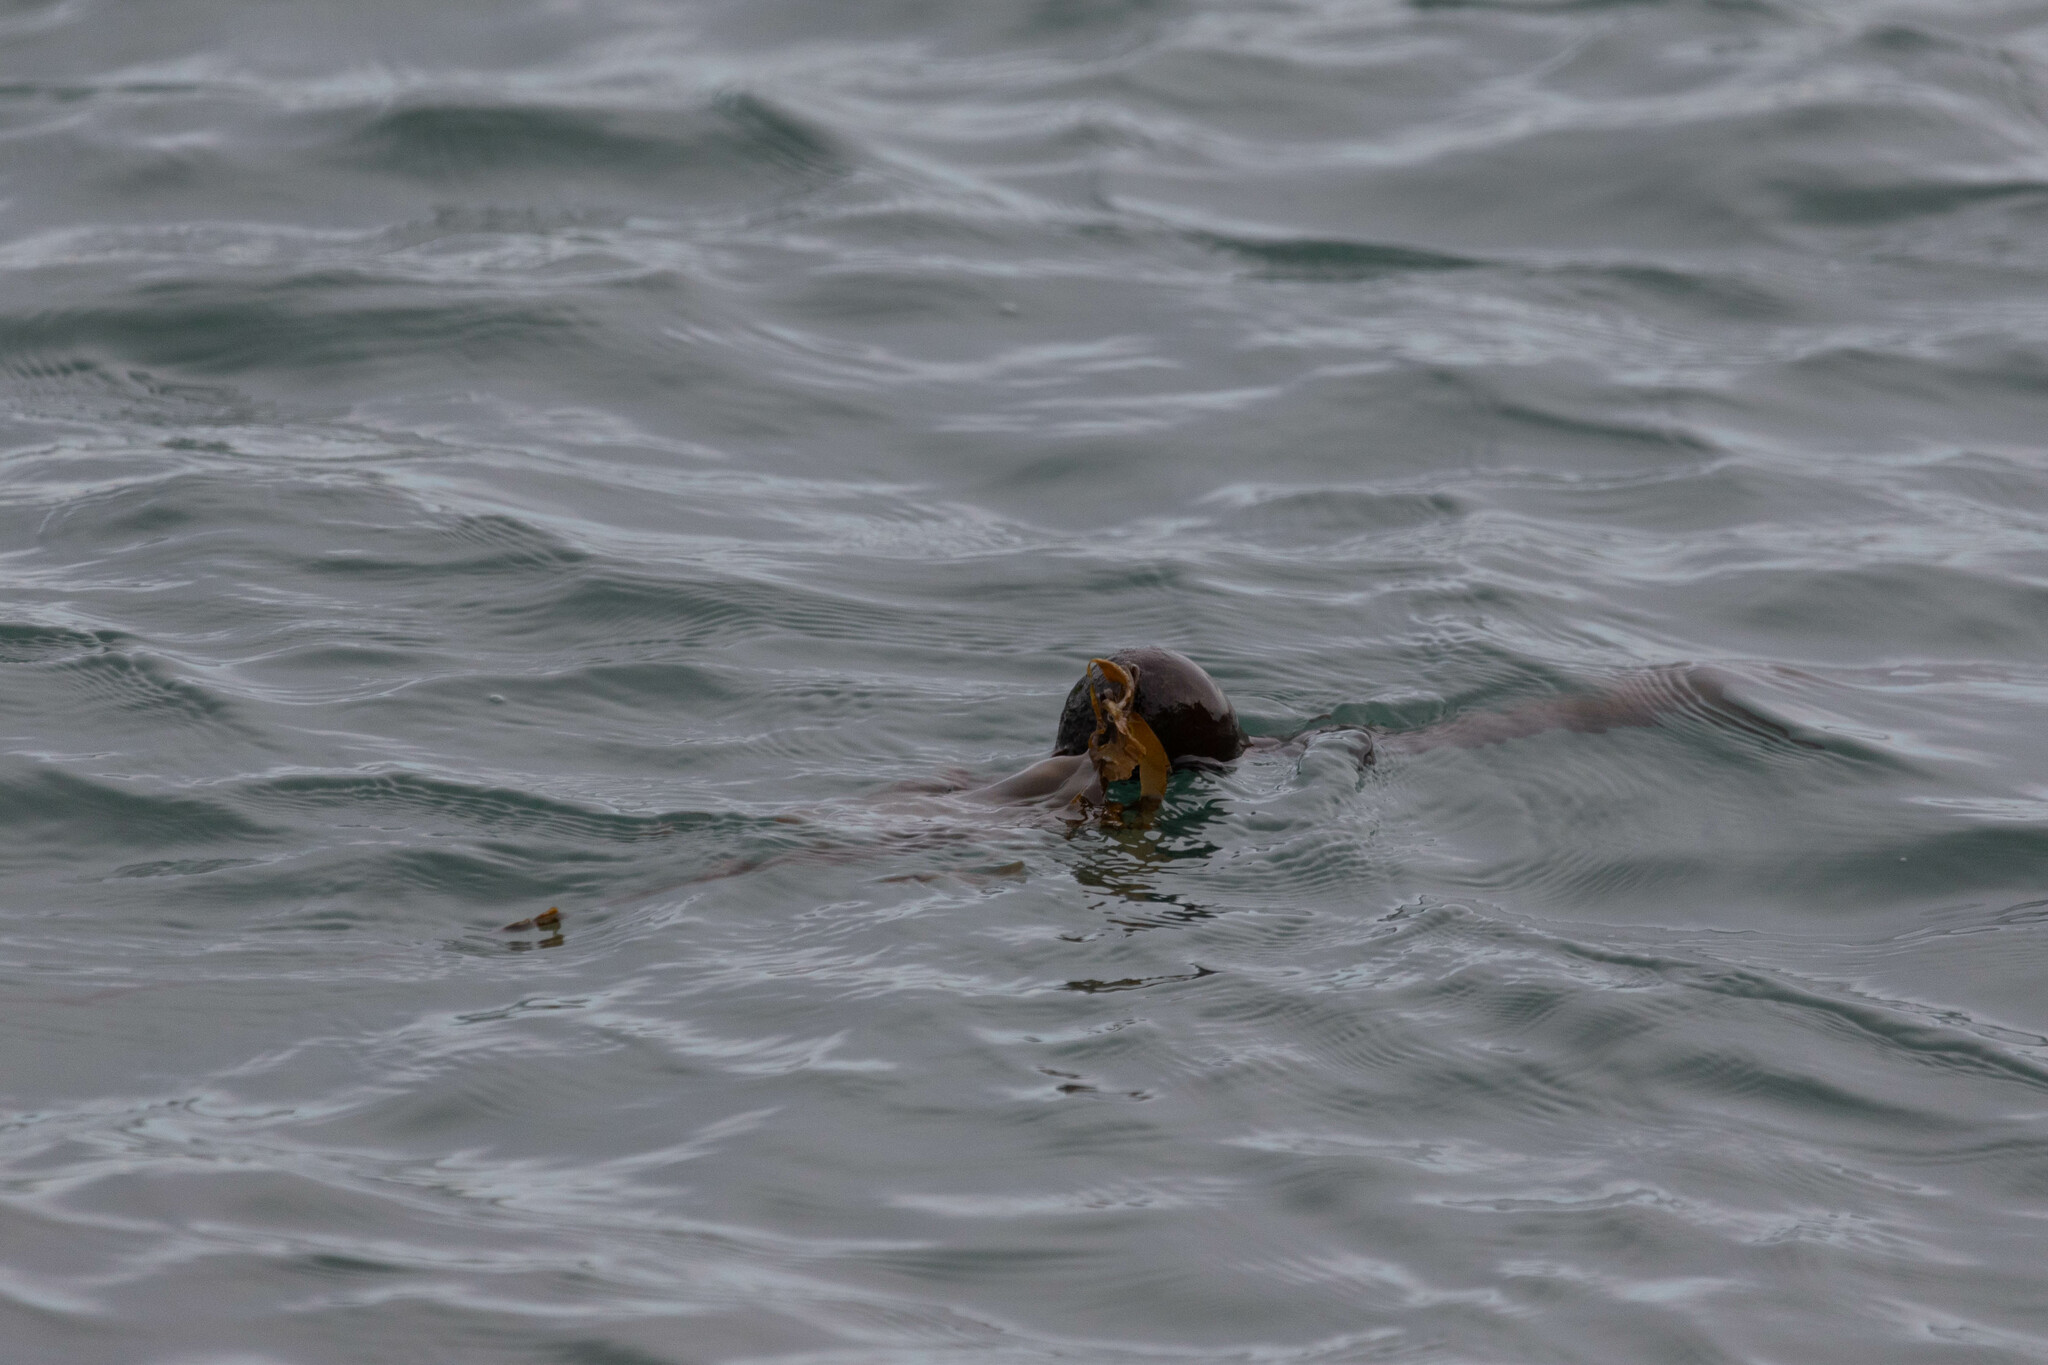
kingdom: Chromista
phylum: Ochrophyta
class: Phaeophyceae
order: Laminariales
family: Laminariaceae
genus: Nereocystis
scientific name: Nereocystis luetkeana
